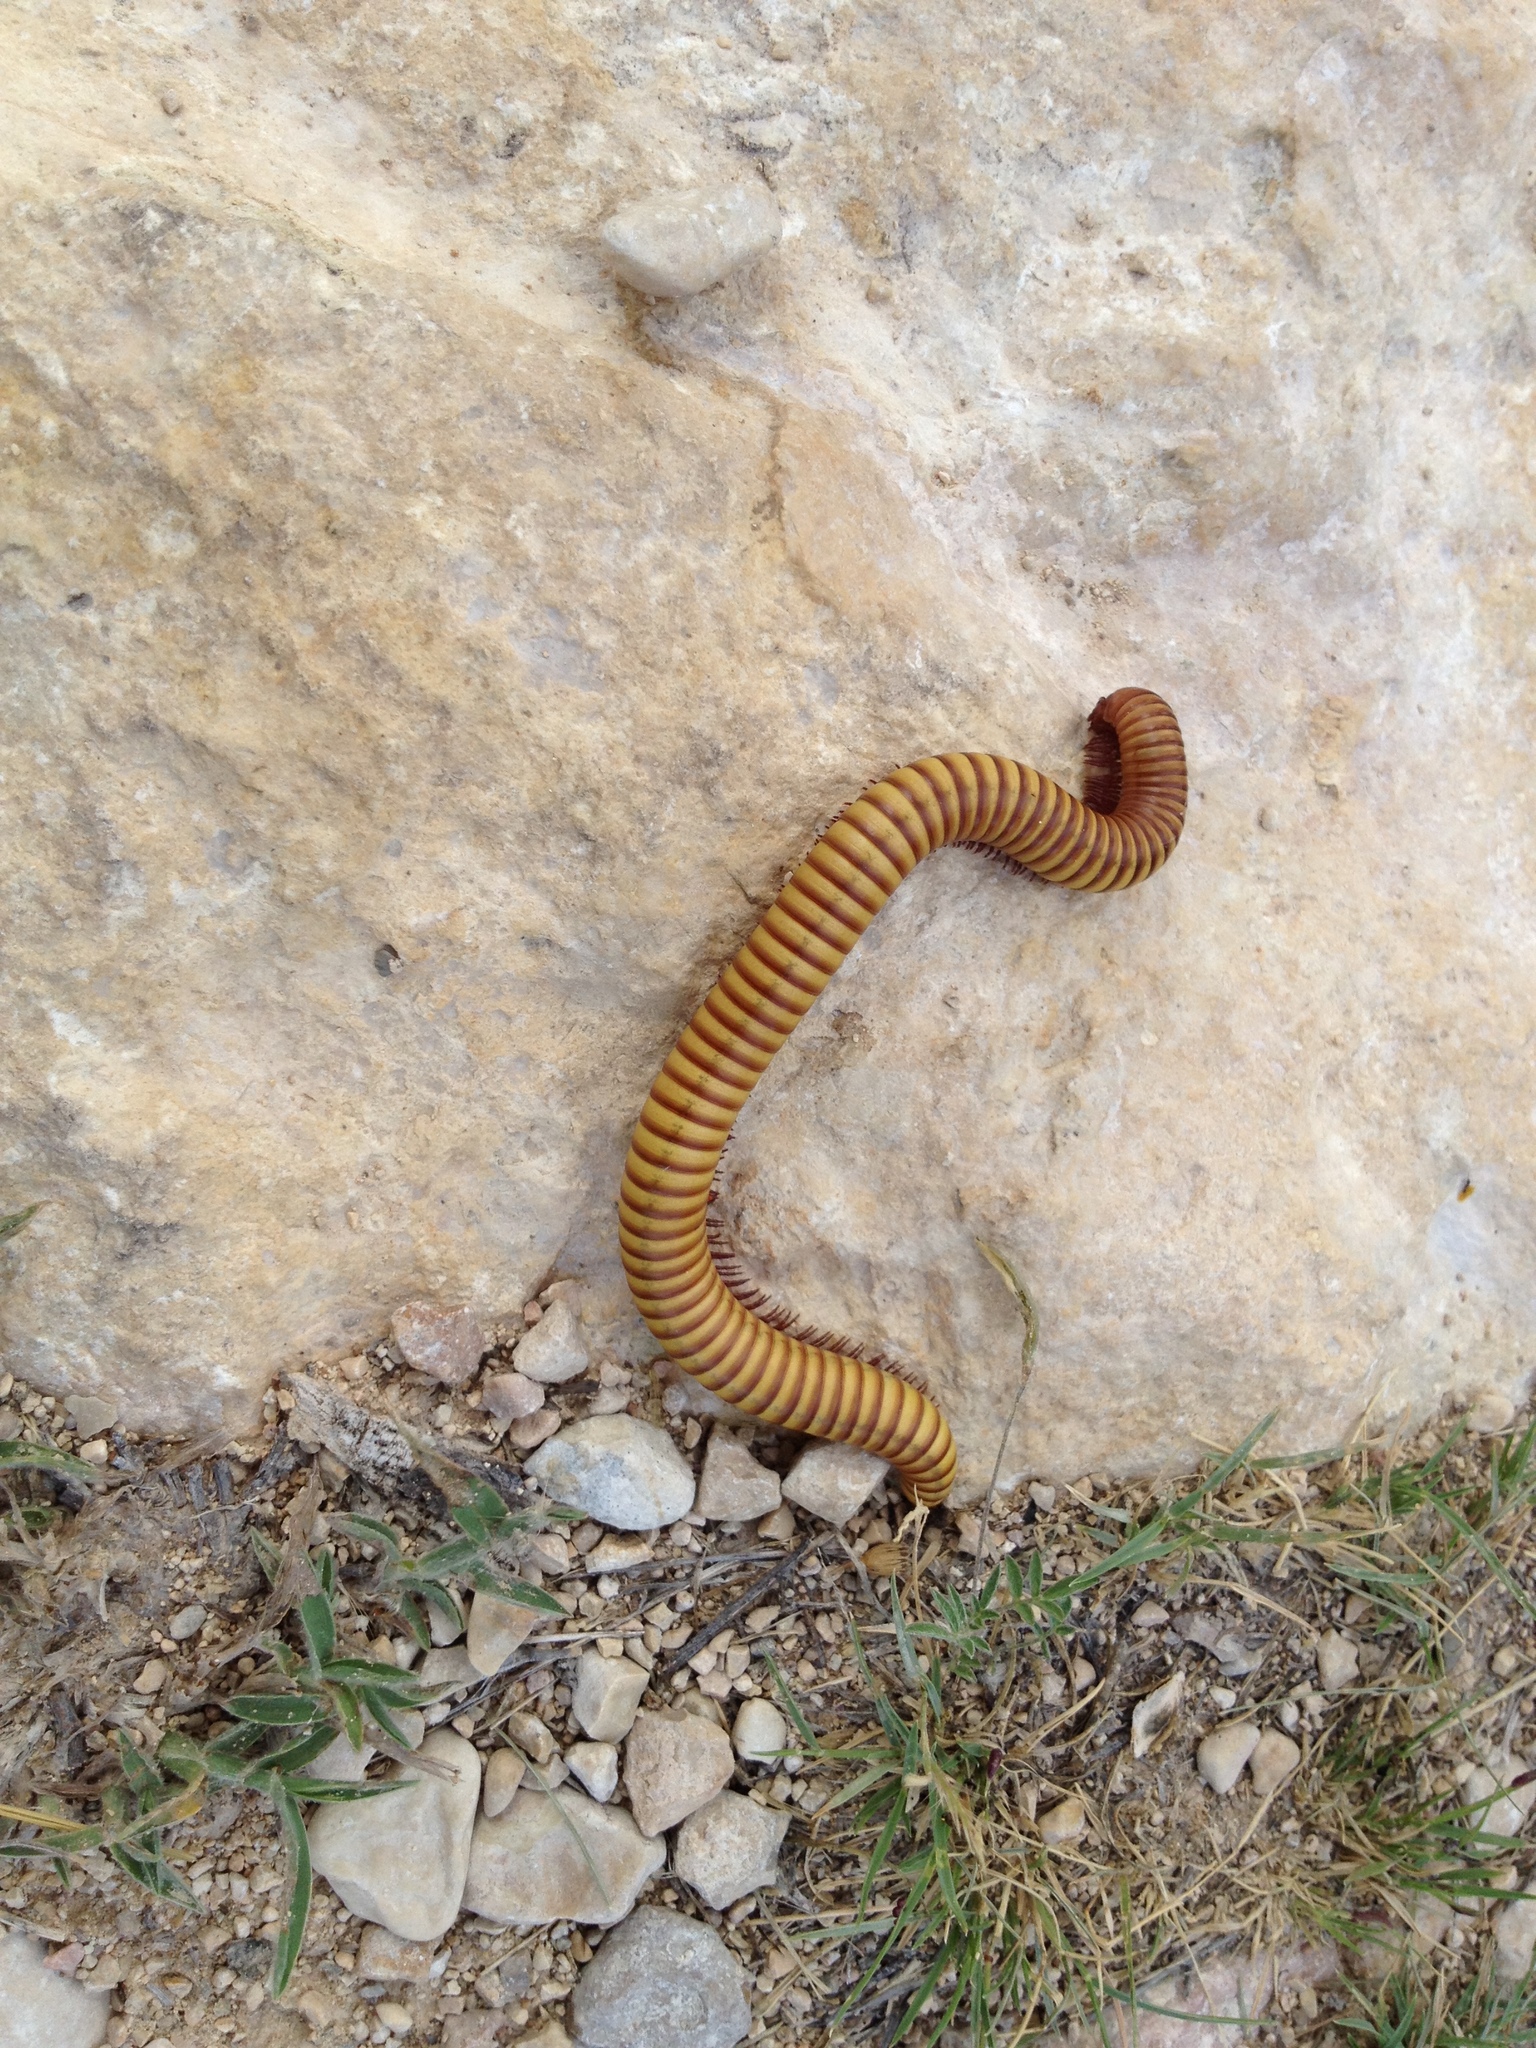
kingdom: Animalia
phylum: Arthropoda
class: Diplopoda
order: Spirostreptida
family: Spirostreptidae
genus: Orthoporus
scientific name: Orthoporus ornatus
